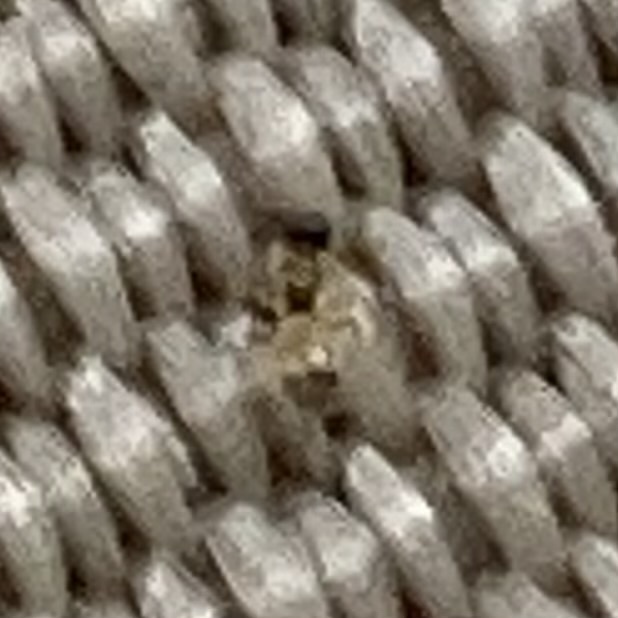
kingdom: Animalia
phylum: Arthropoda
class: Insecta
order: Hymenoptera
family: Formicidae
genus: Tapinoma
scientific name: Tapinoma melanocephalum
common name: Ghost ant
